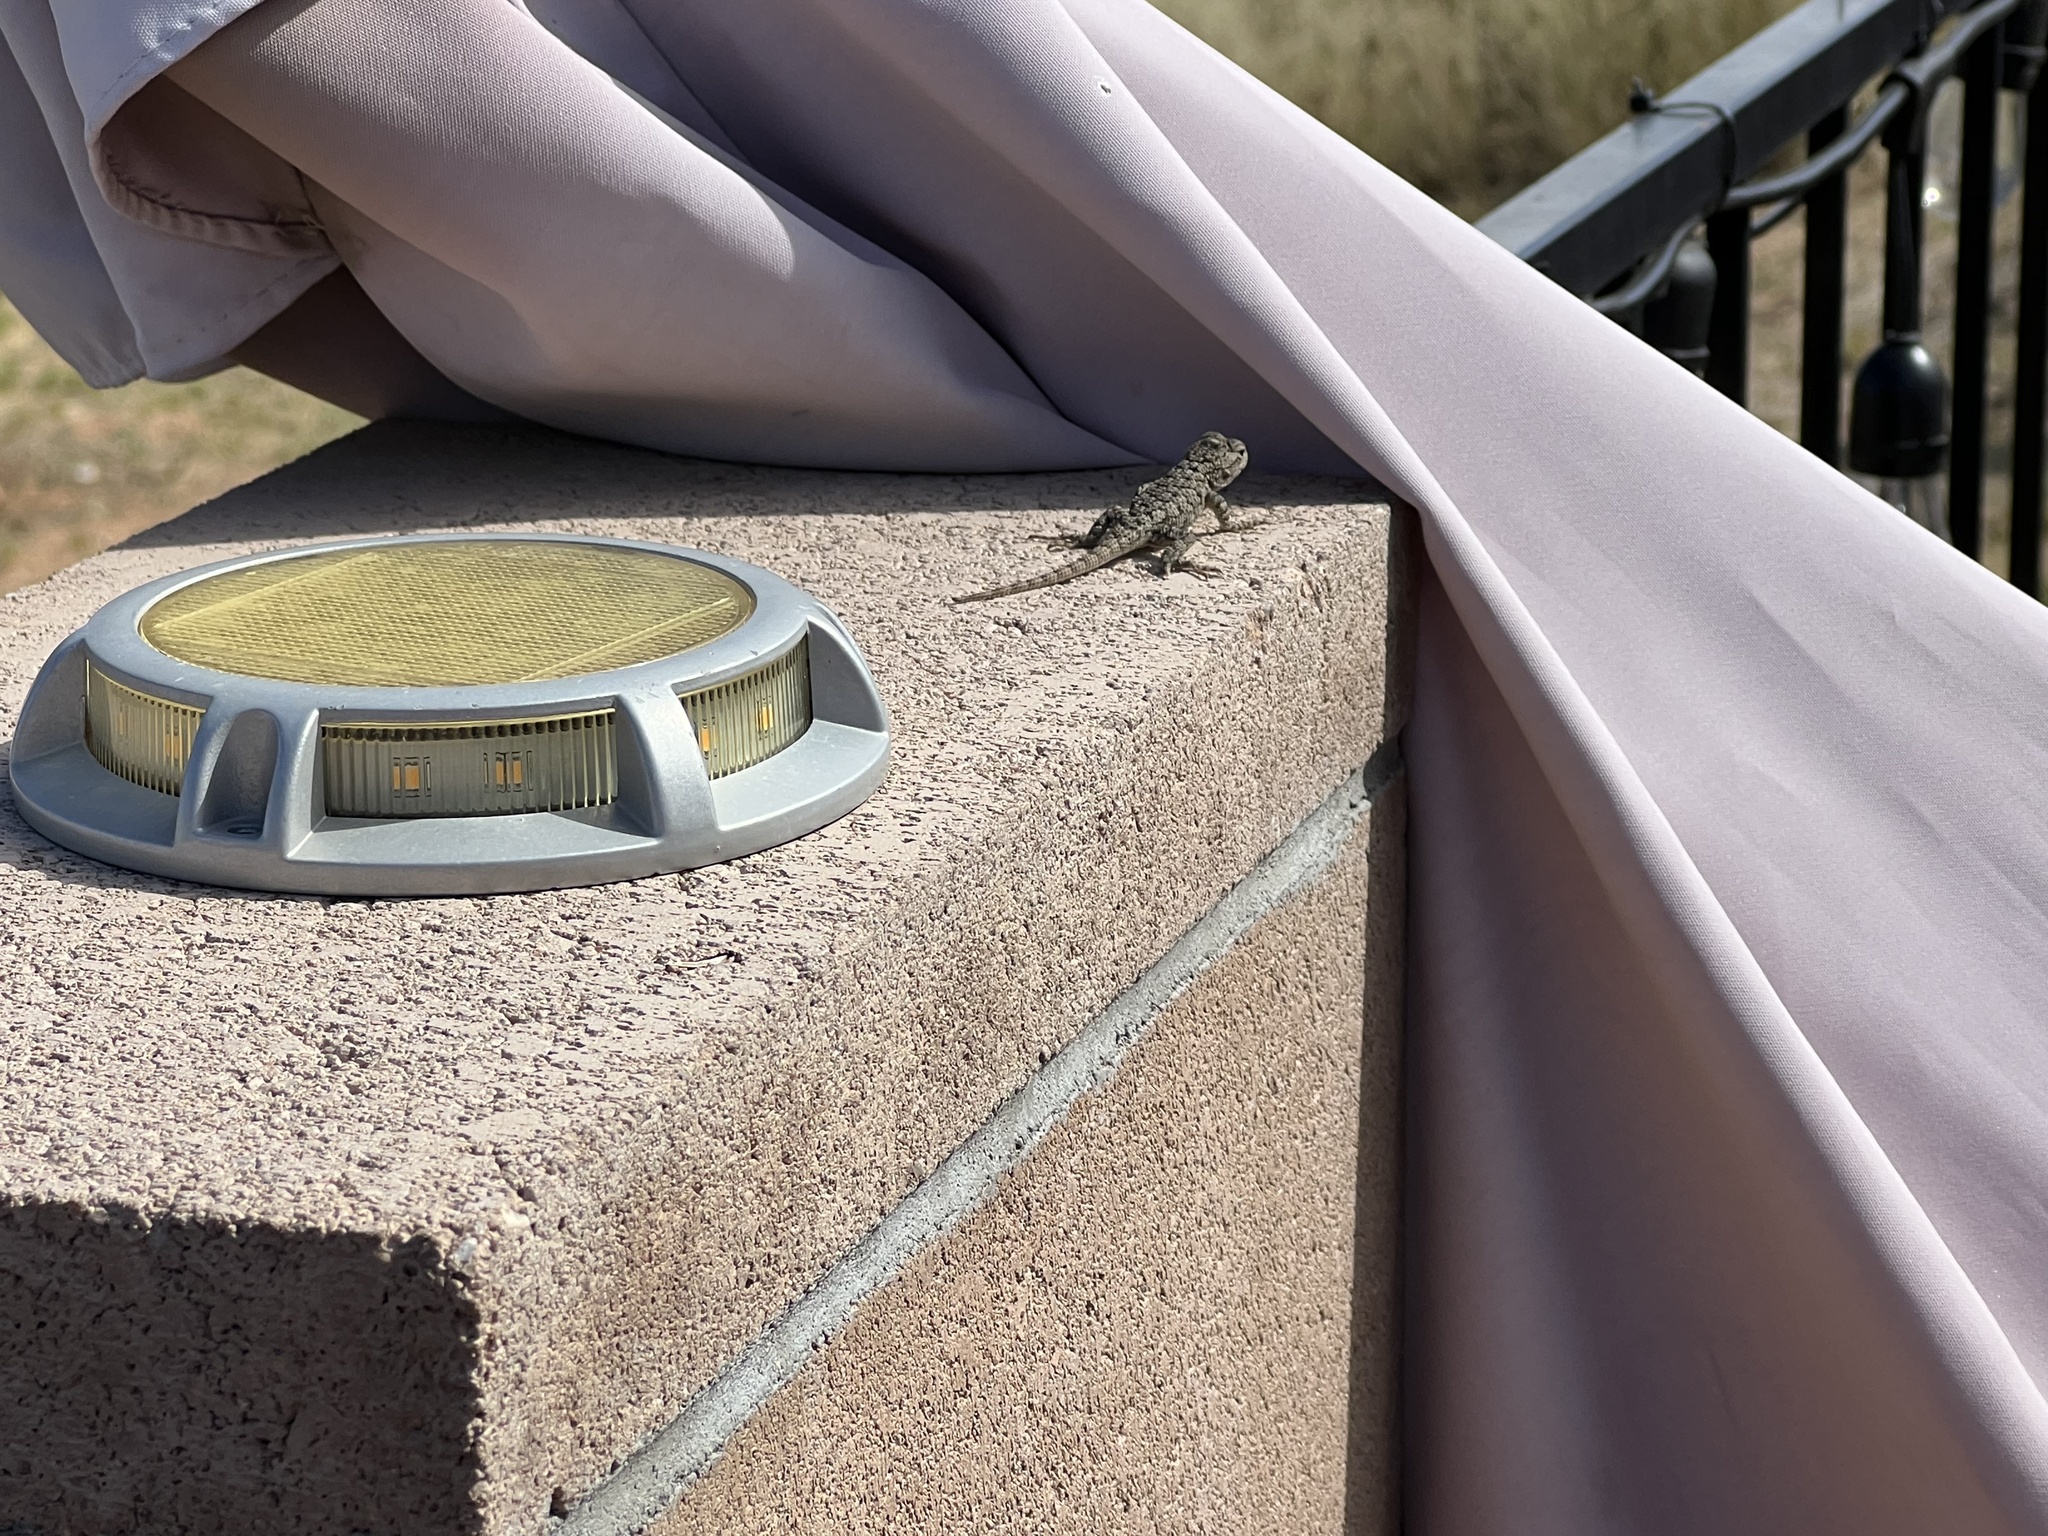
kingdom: Animalia
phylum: Chordata
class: Squamata
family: Phrynosomatidae
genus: Sceloporus
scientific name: Sceloporus clarkii
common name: Clark's spiny lizard
